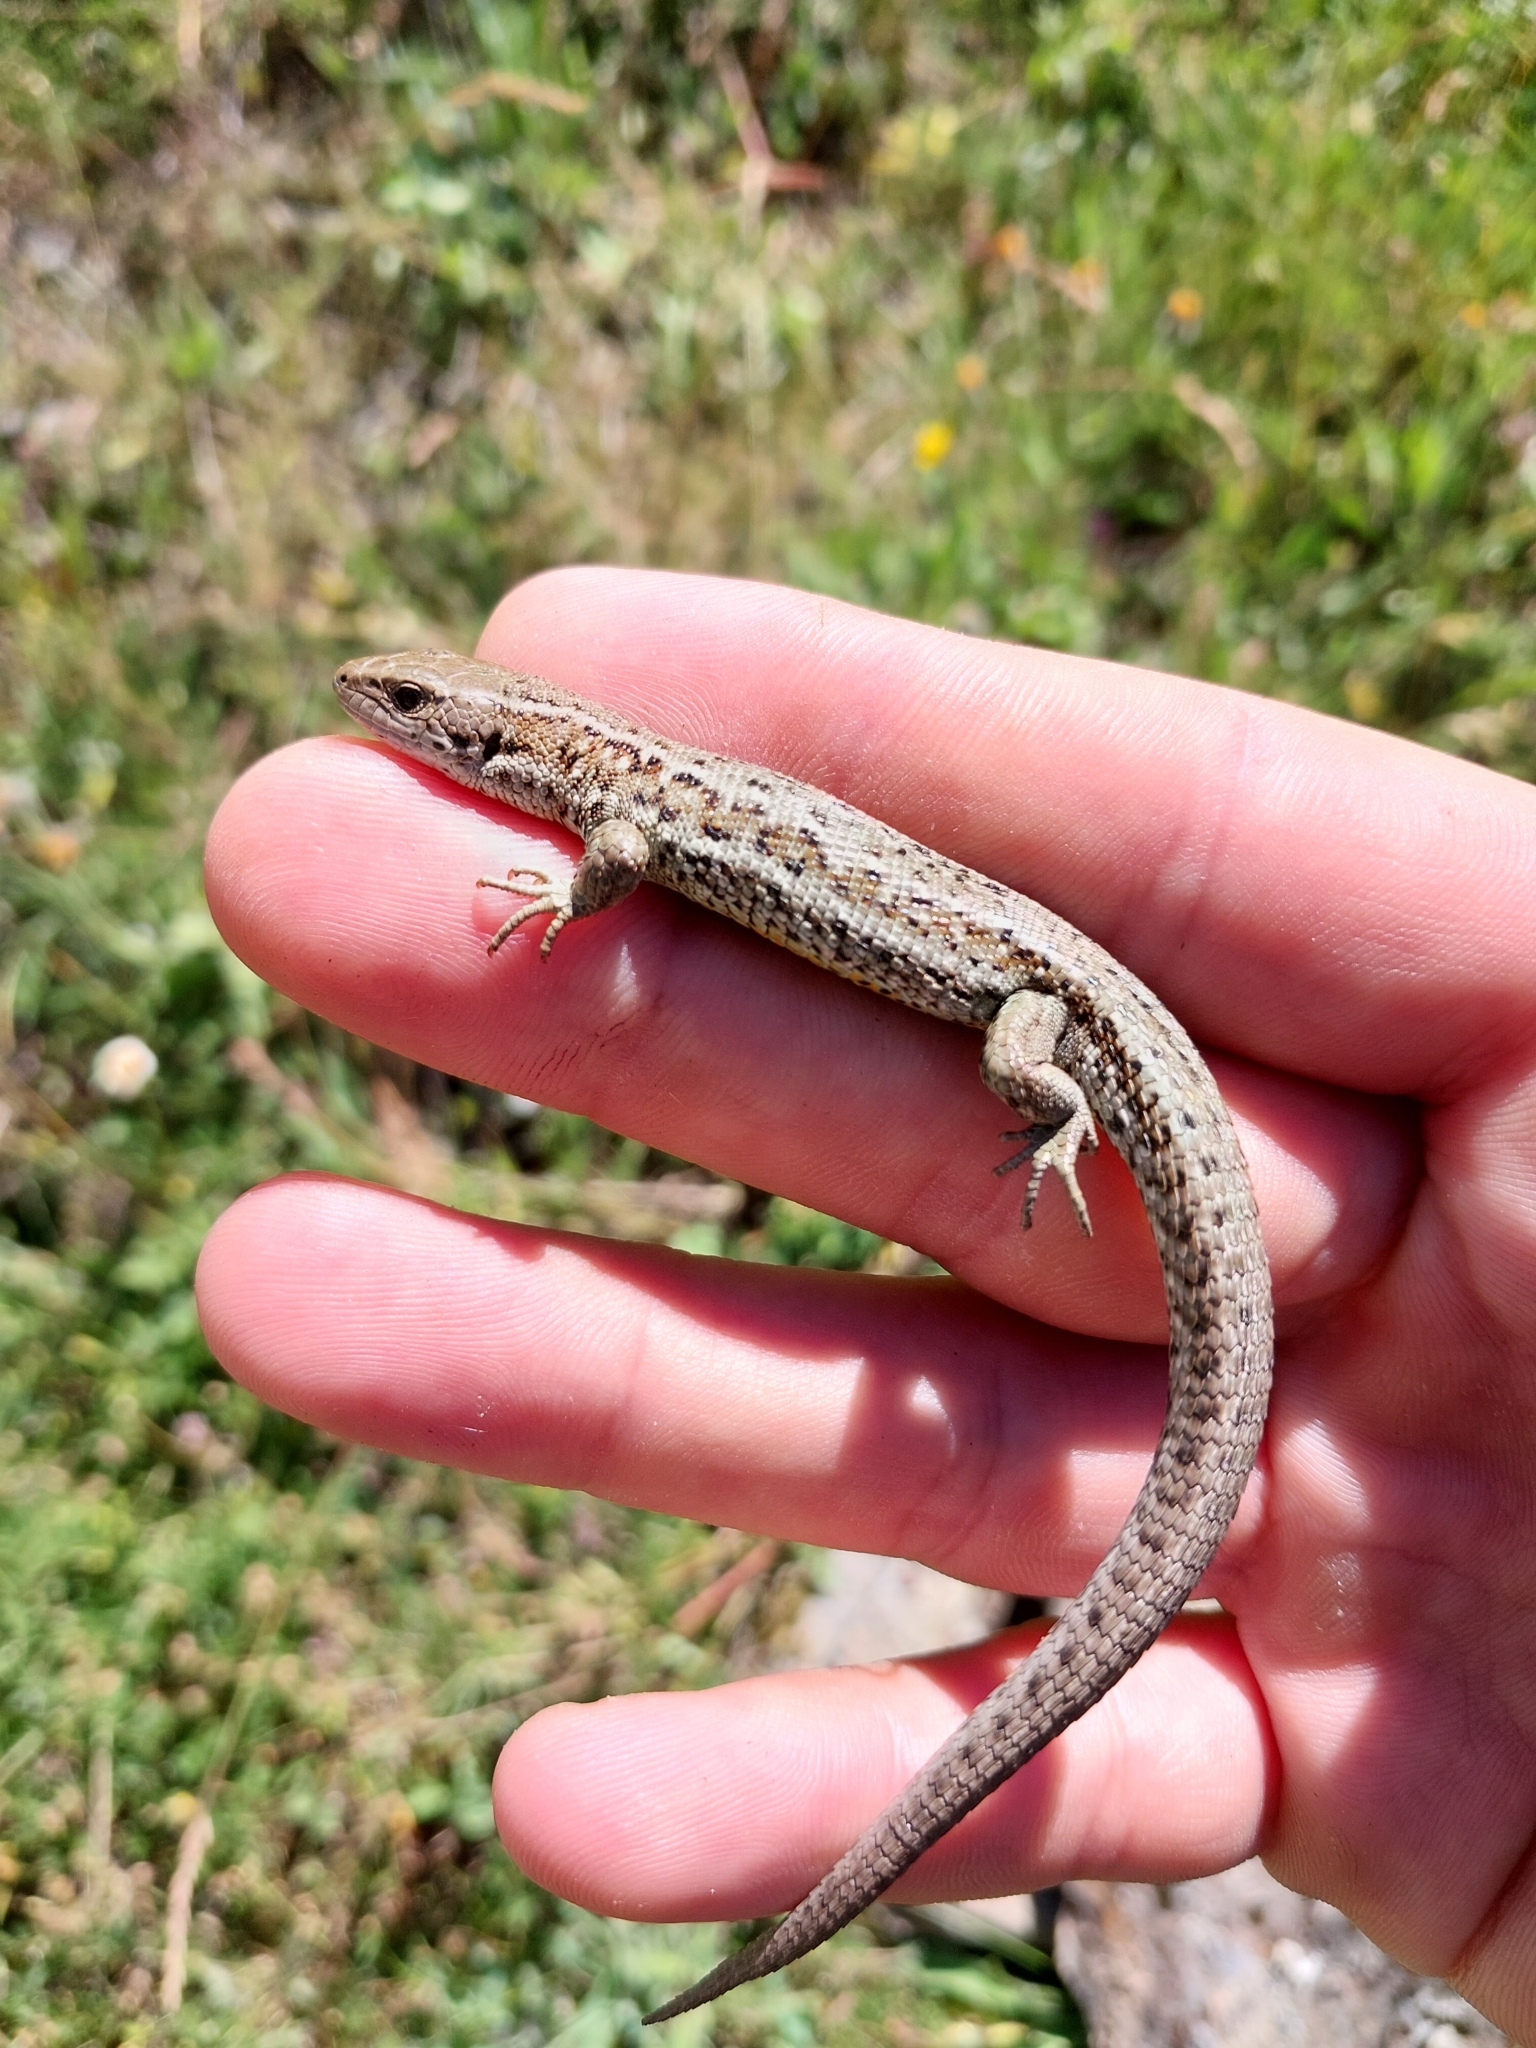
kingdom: Animalia
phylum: Chordata
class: Squamata
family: Lacertidae
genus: Zootoca
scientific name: Zootoca vivipara
